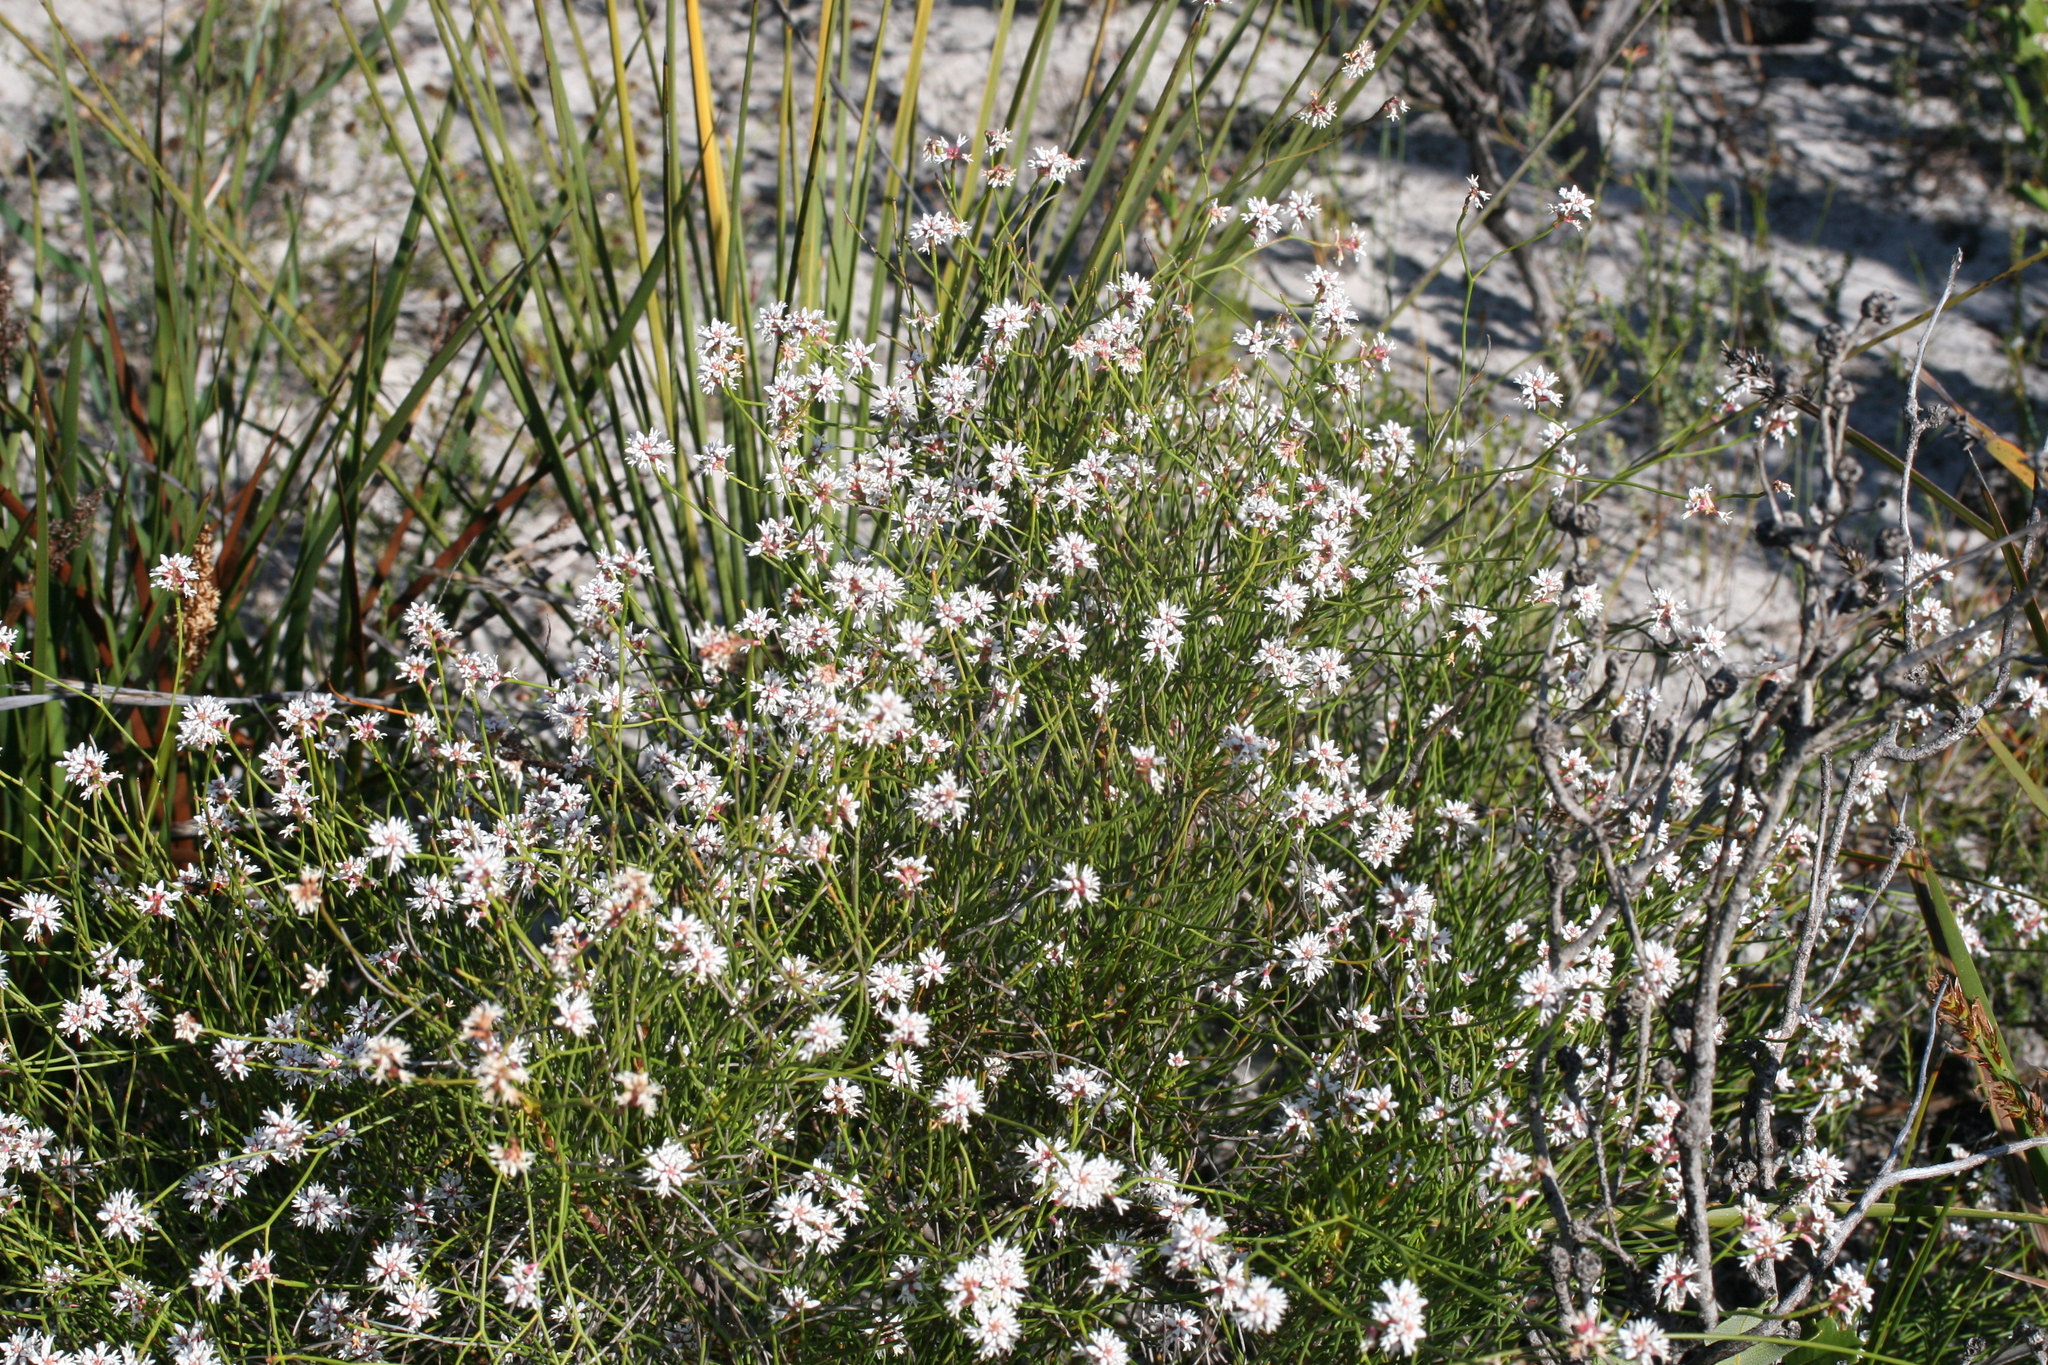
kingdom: Plantae
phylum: Tracheophyta
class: Magnoliopsida
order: Proteales
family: Proteaceae
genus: Conospermum
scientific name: Conospermum leianthum
